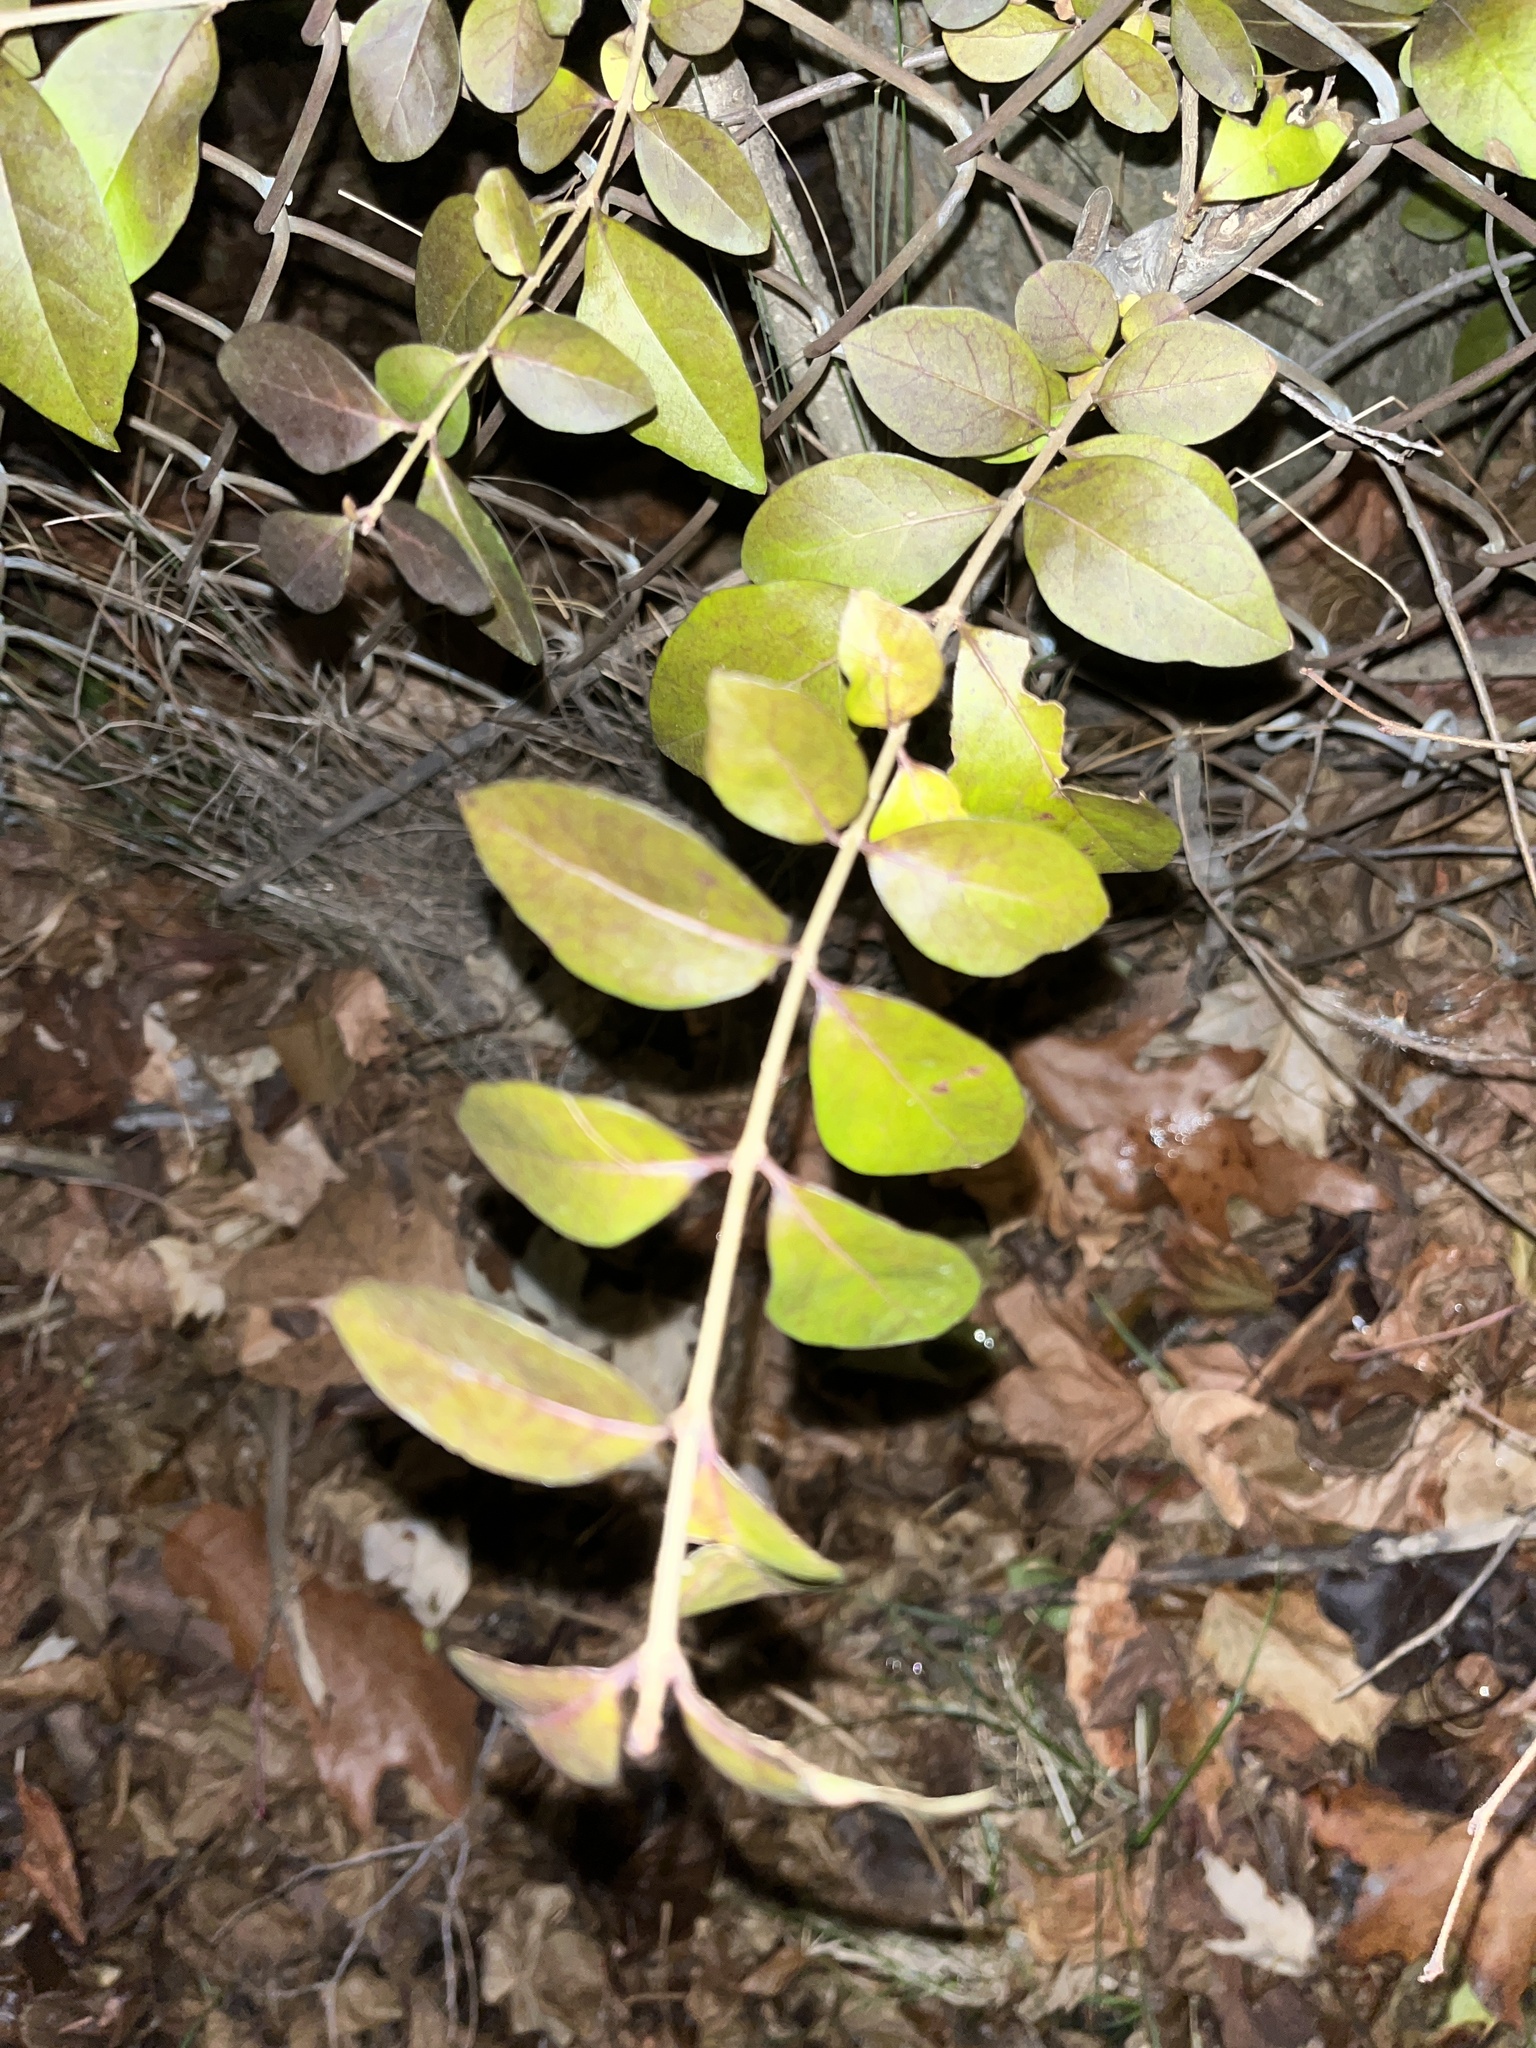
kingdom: Plantae
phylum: Tracheophyta
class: Magnoliopsida
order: Lamiales
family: Oleaceae
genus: Ligustrum
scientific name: Ligustrum ovalifolium
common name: California privet
